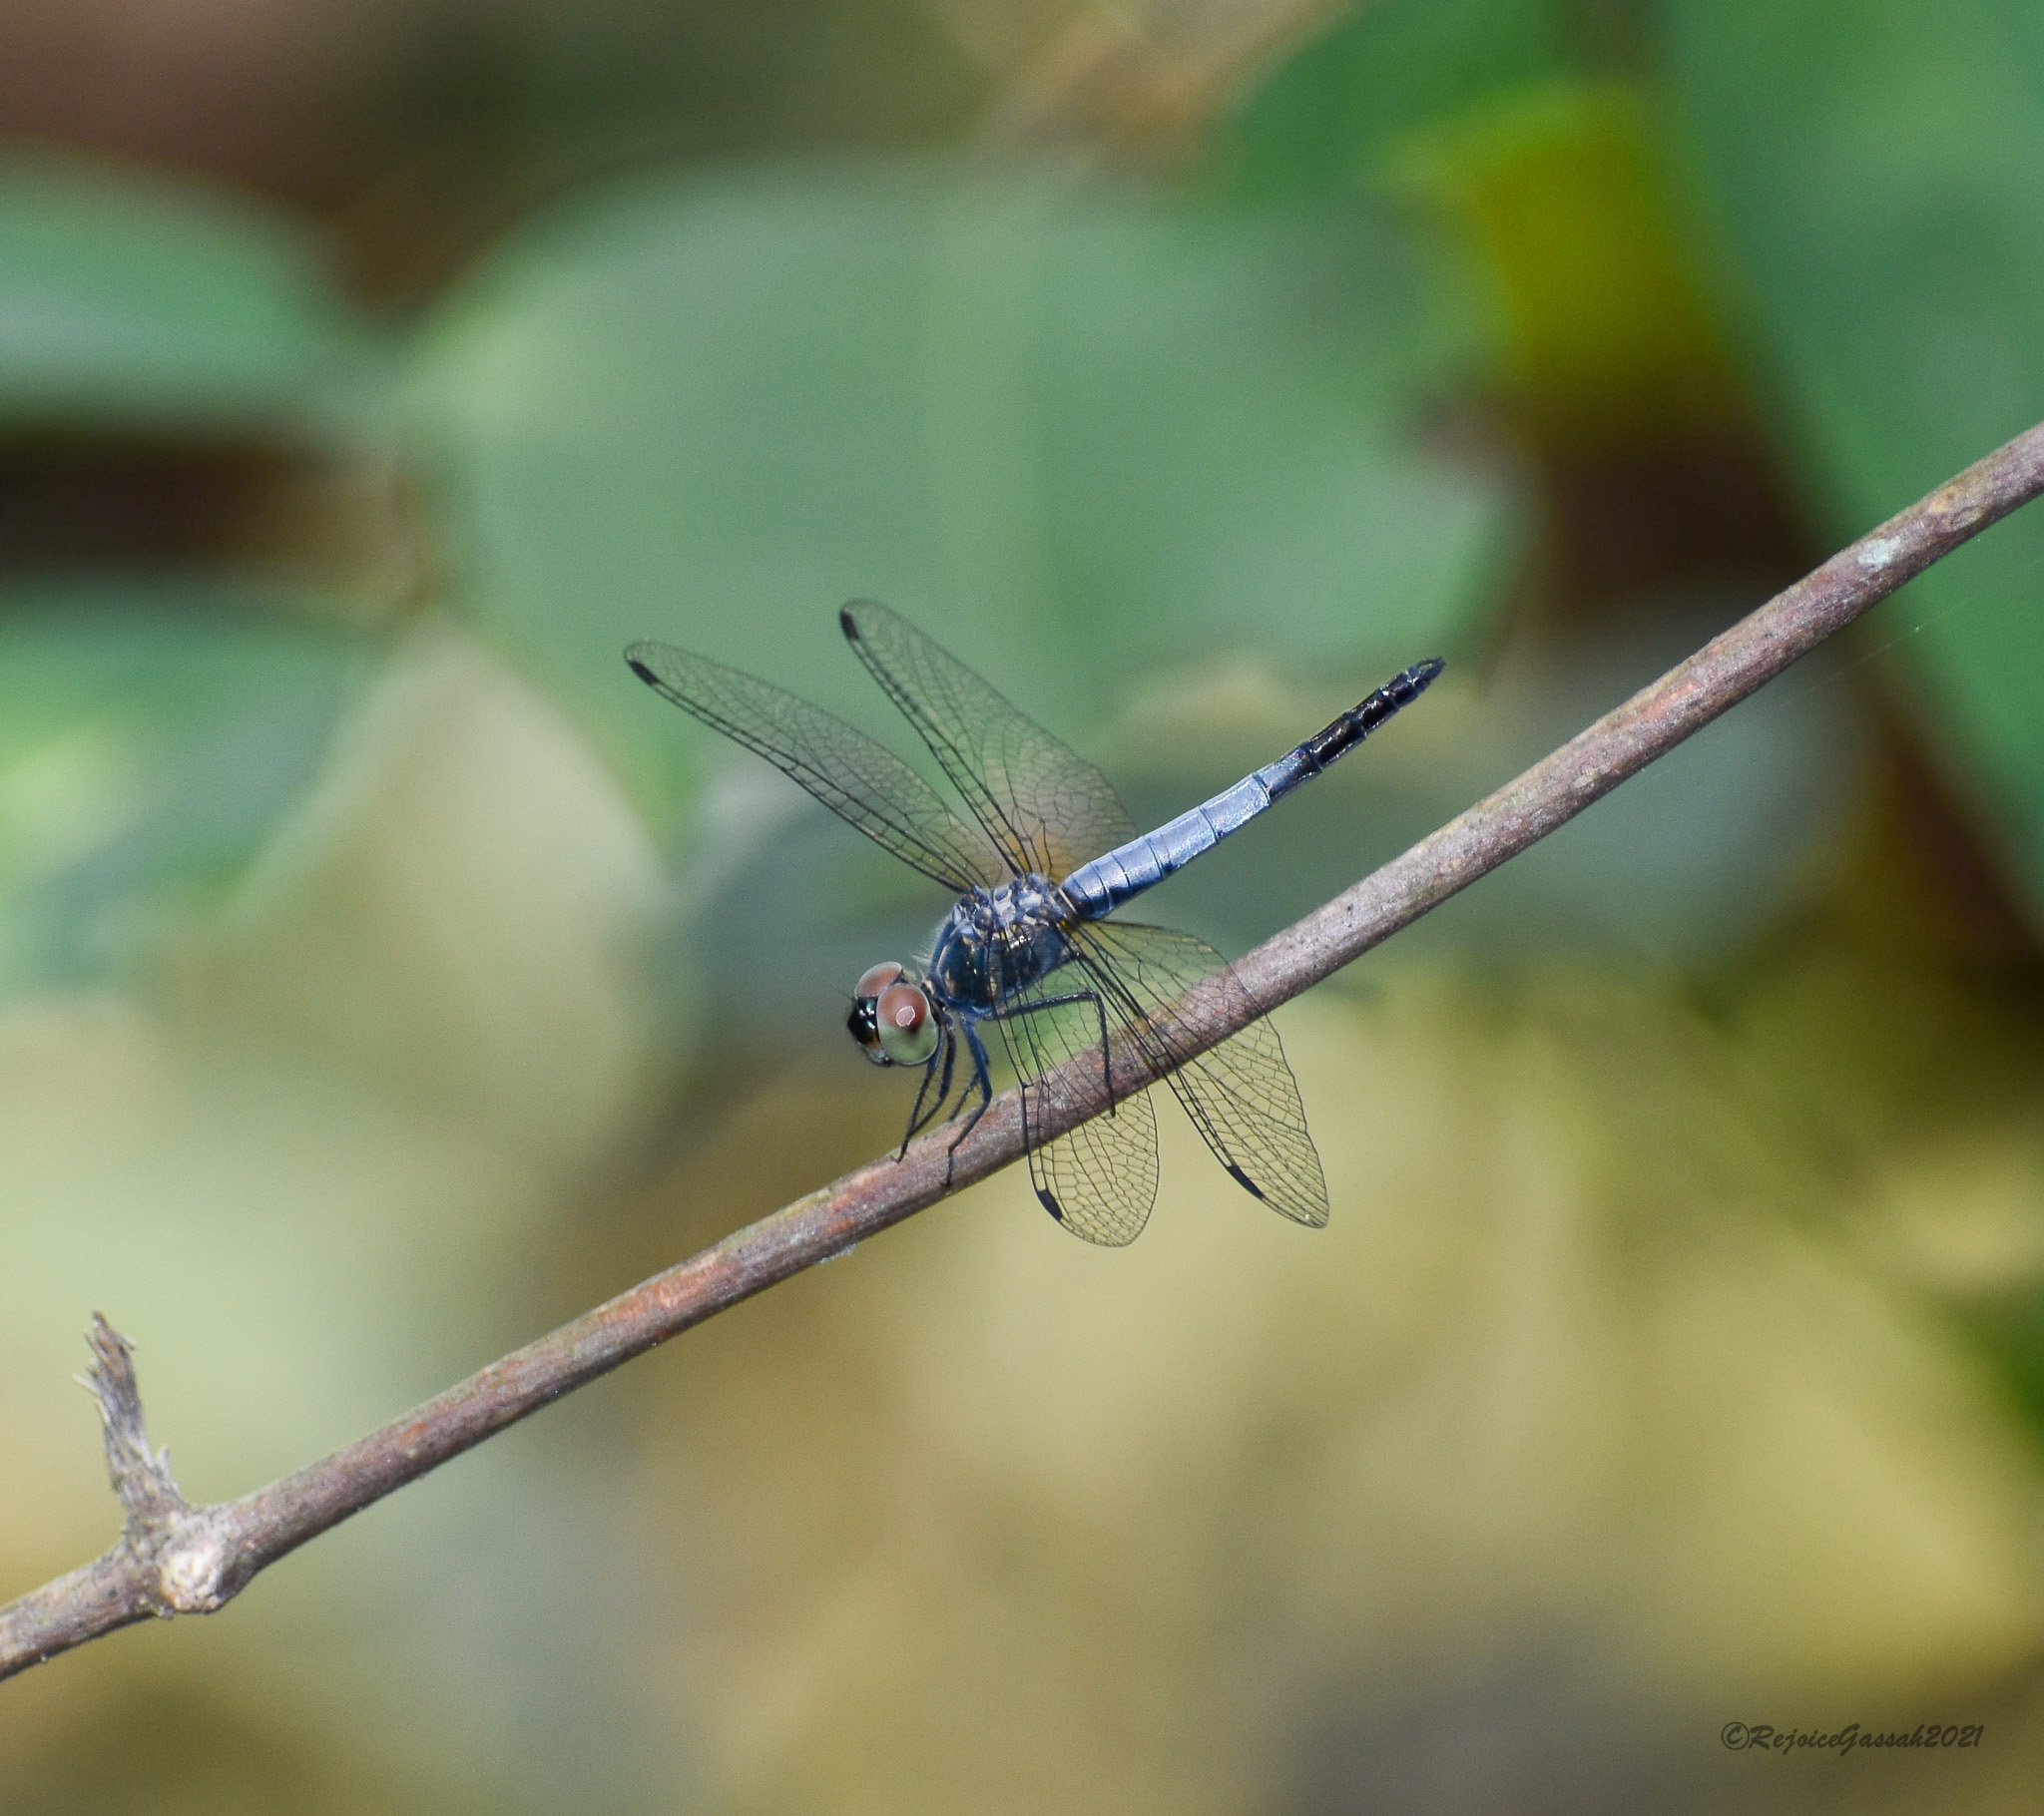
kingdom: Animalia
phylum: Arthropoda
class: Insecta
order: Odonata
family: Libellulidae
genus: Brachydiplax
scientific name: Brachydiplax farinosa
